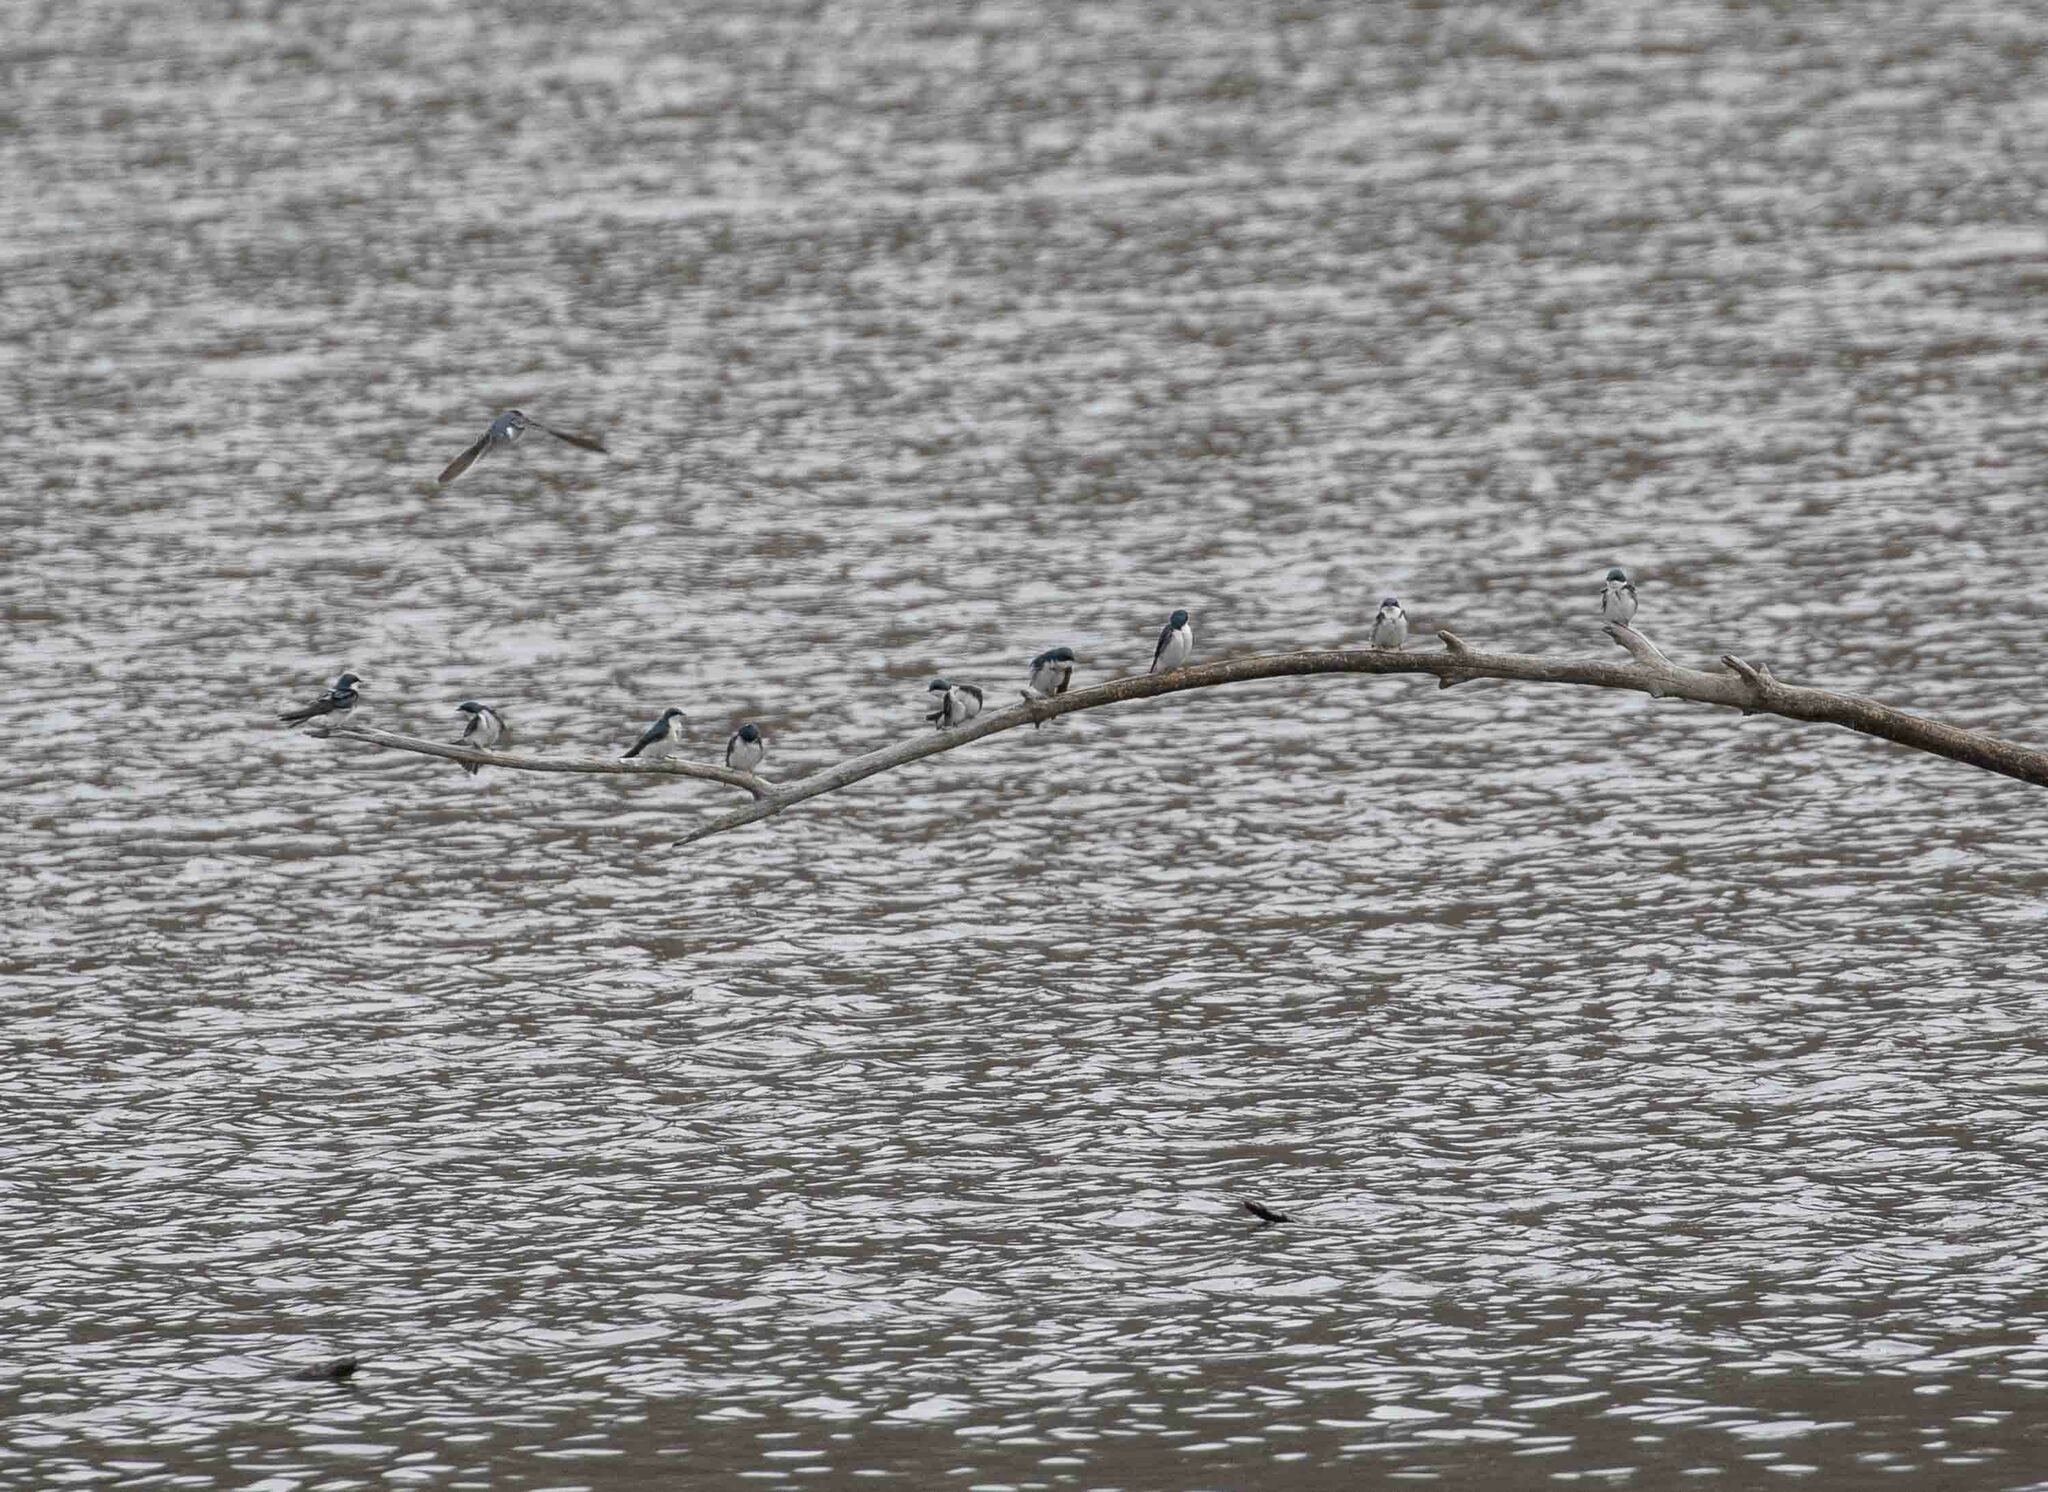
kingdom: Animalia
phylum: Chordata
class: Aves
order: Passeriformes
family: Hirundinidae
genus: Tachycineta
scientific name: Tachycineta bicolor
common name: Tree swallow
